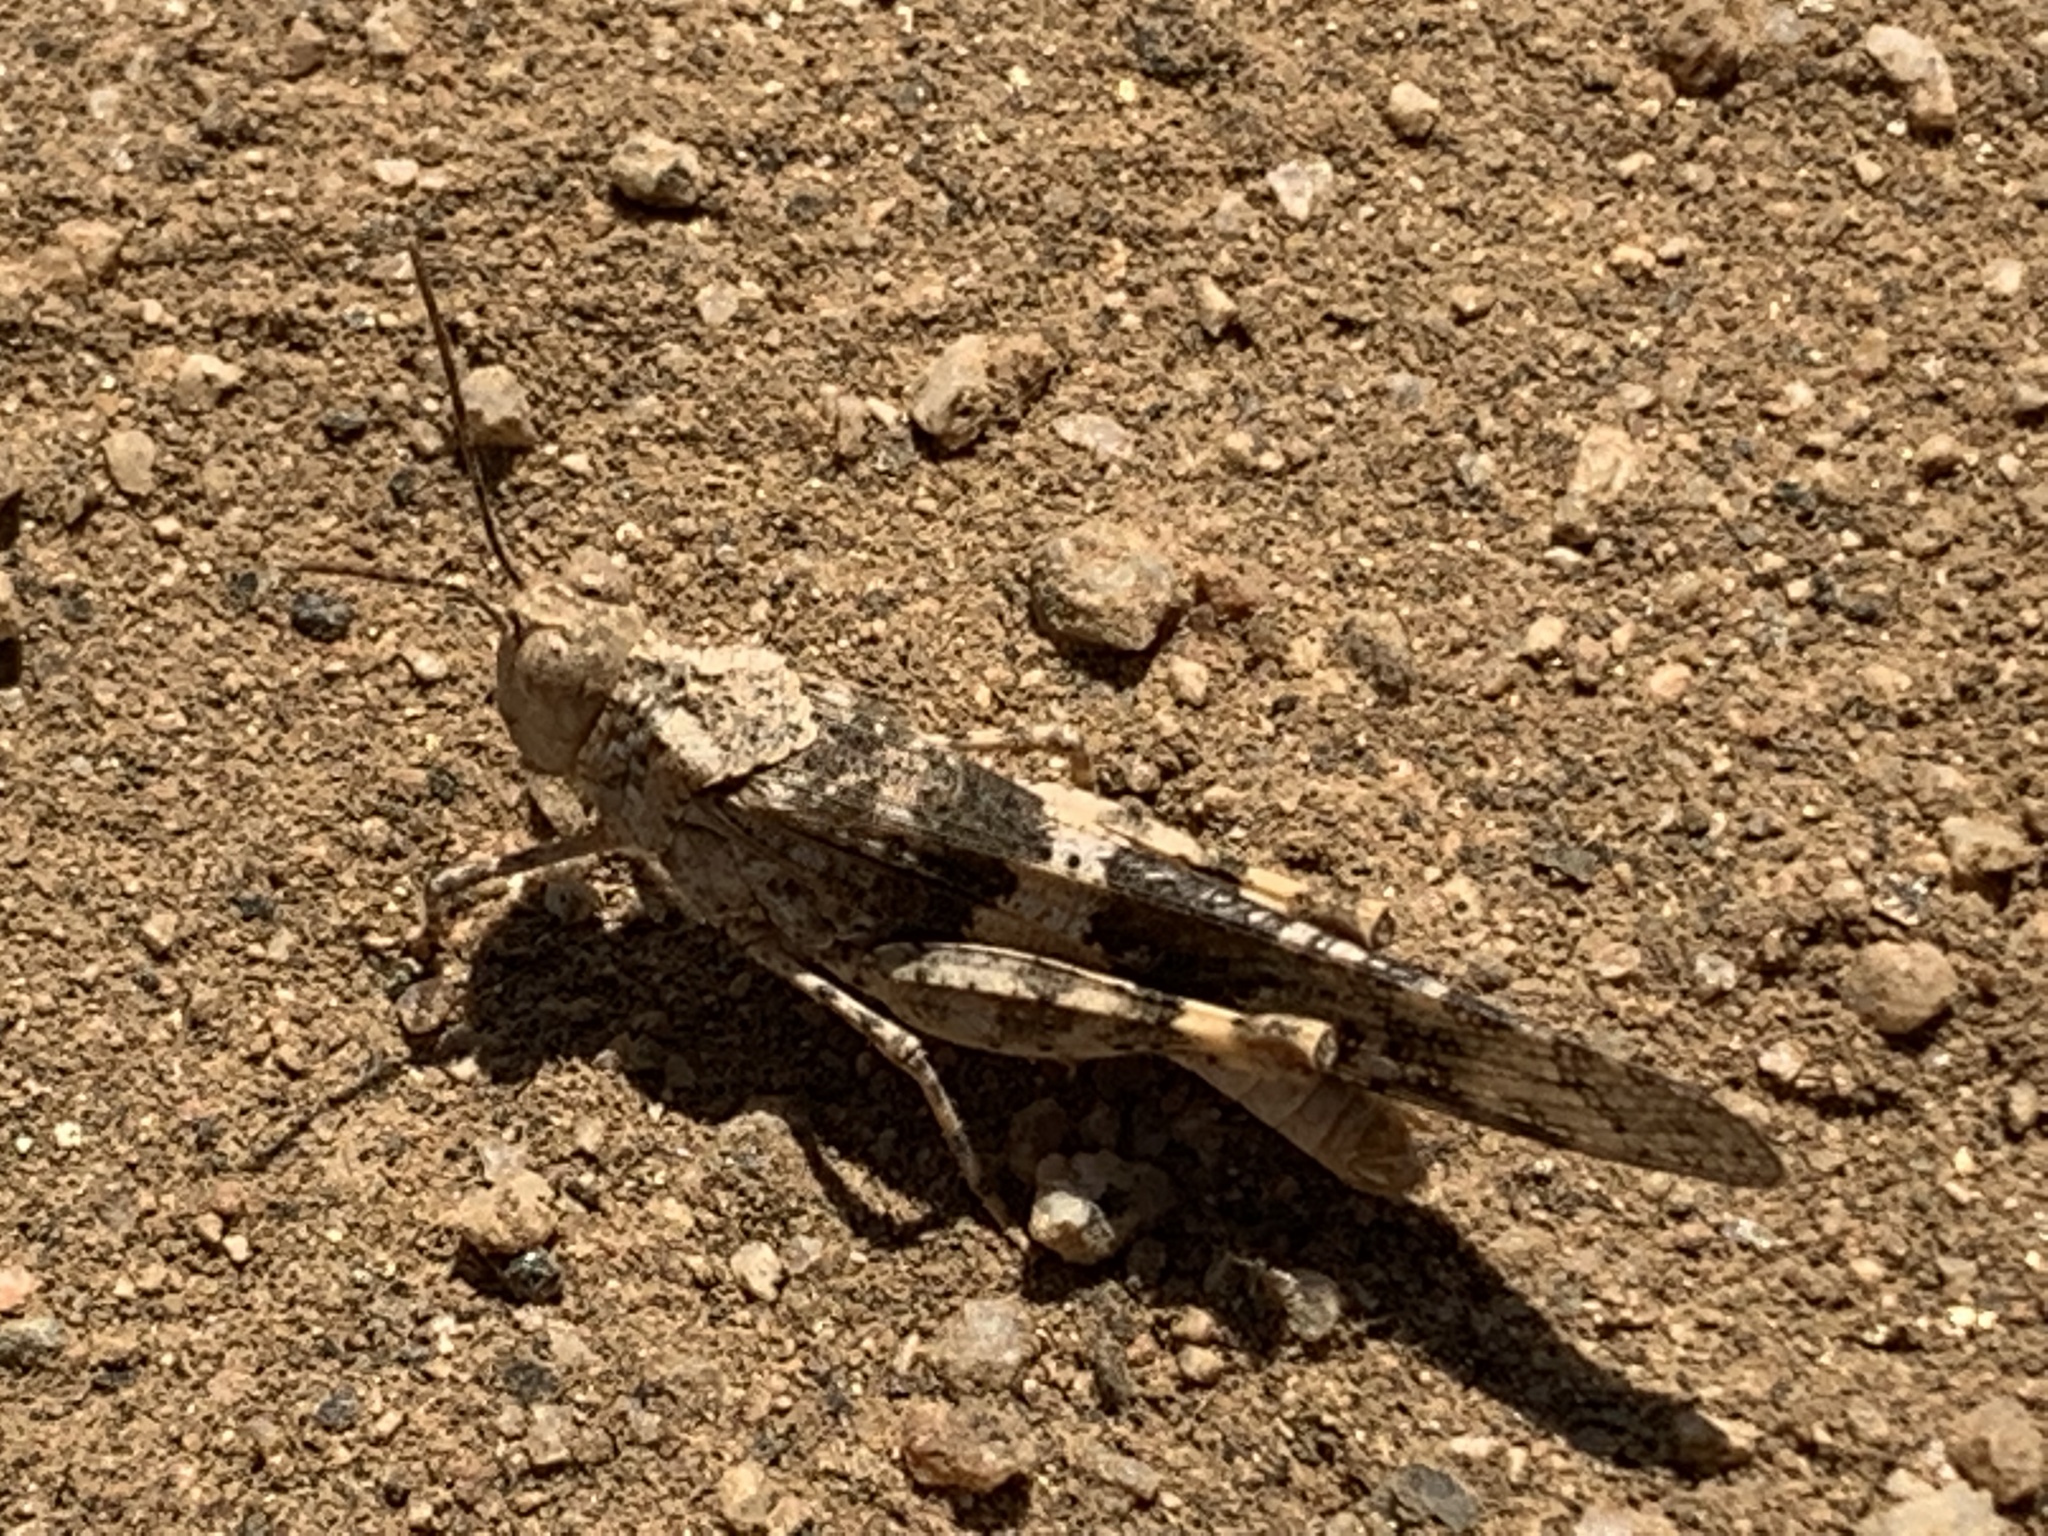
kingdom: Animalia
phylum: Arthropoda
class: Insecta
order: Orthoptera
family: Acrididae
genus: Trimerotropis
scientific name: Trimerotropis pallidipennis
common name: Pallid-winged grasshopper
